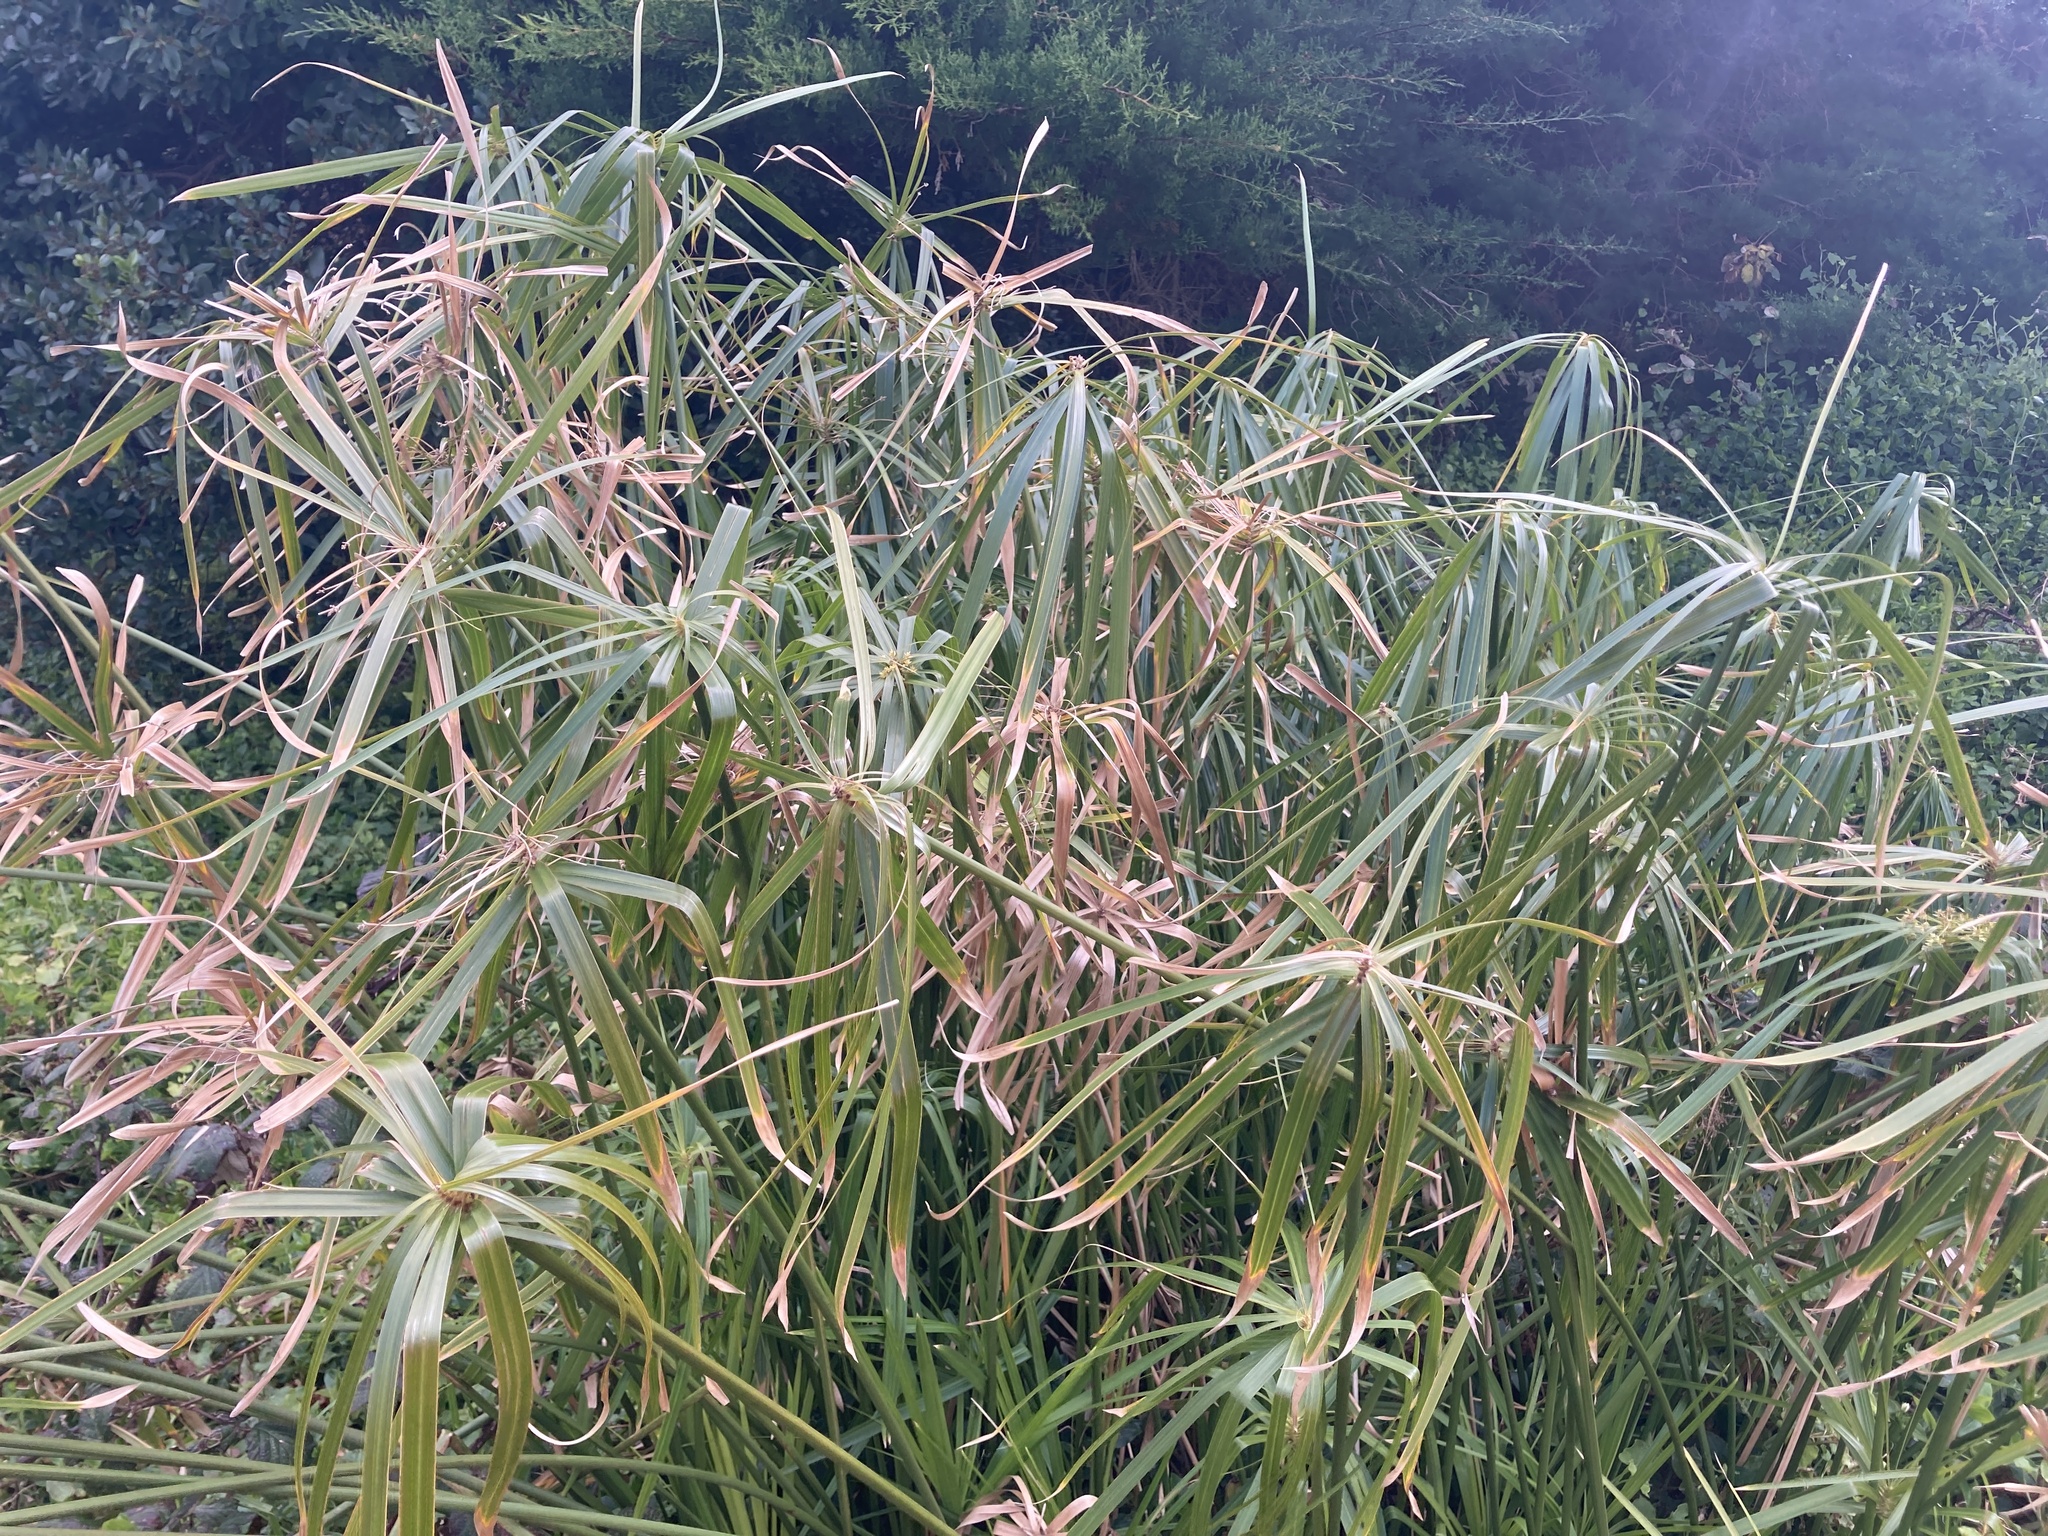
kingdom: Plantae
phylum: Tracheophyta
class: Liliopsida
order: Poales
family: Cyperaceae
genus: Cyperus
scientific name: Cyperus alternifolius
